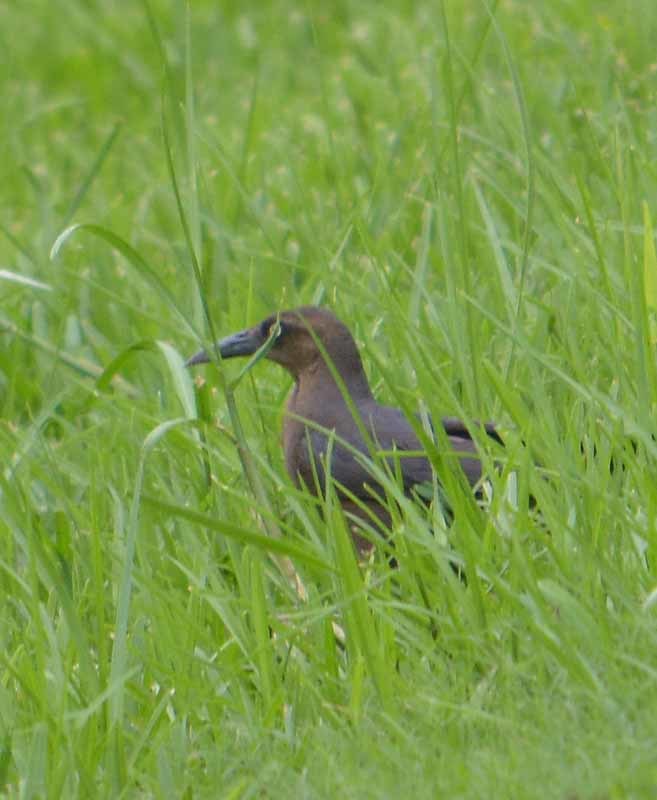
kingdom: Animalia
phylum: Chordata
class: Aves
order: Passeriformes
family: Icteridae
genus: Quiscalus
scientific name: Quiscalus mexicanus
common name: Great-tailed grackle
